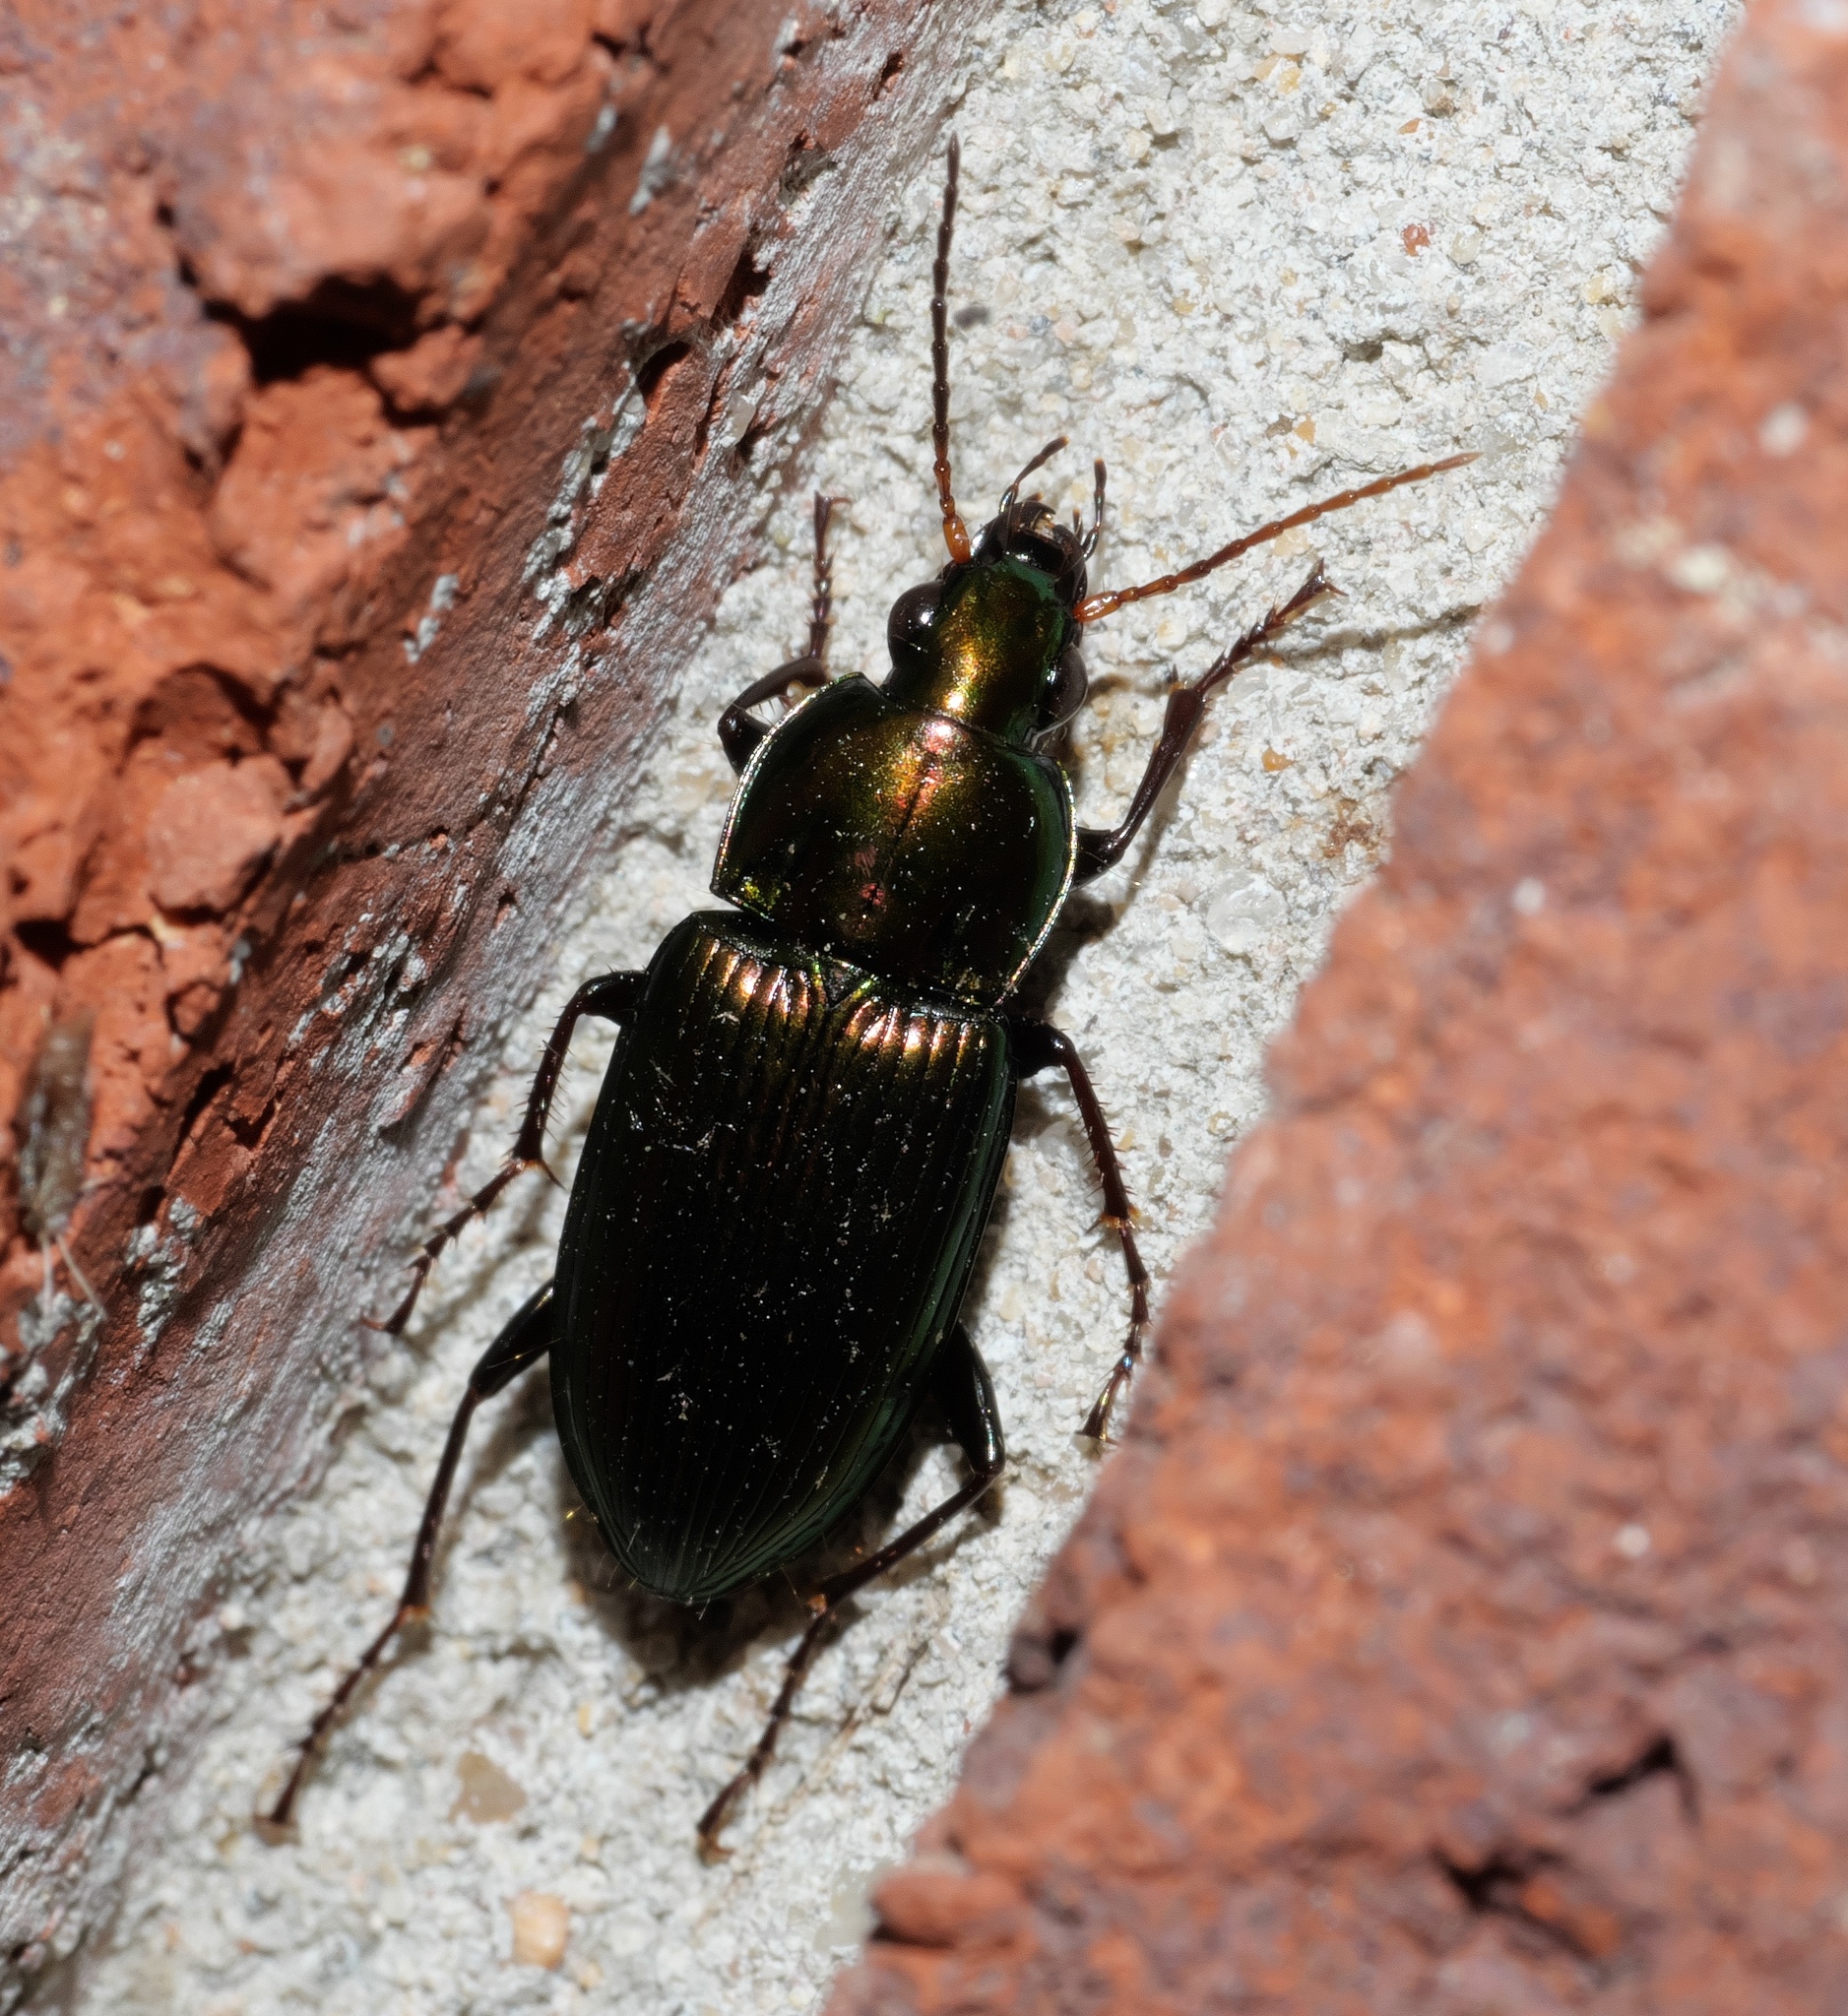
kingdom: Animalia
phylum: Arthropoda
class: Insecta
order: Coleoptera
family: Carabidae
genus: Poecilus
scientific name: Poecilus chalcites
